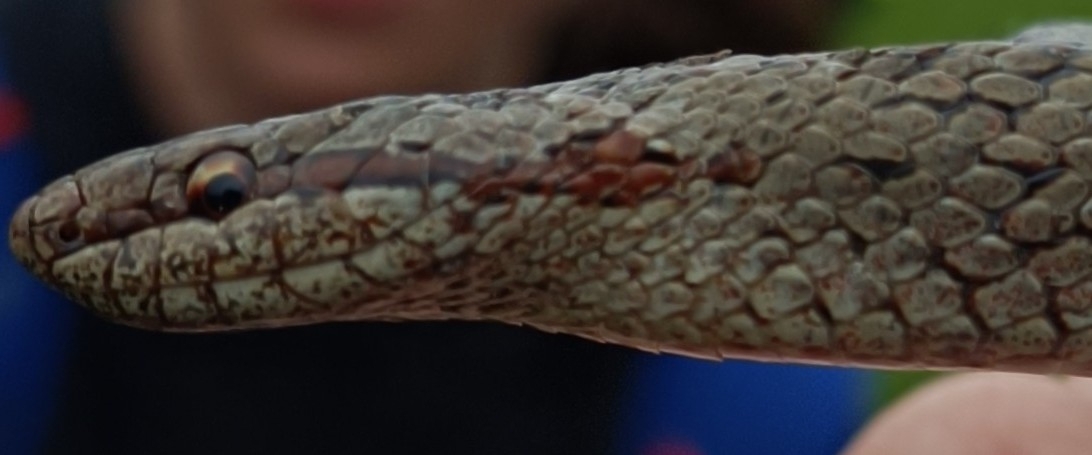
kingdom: Animalia
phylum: Chordata
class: Squamata
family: Colubridae
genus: Coronella
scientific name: Coronella austriaca
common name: Smooth snake
